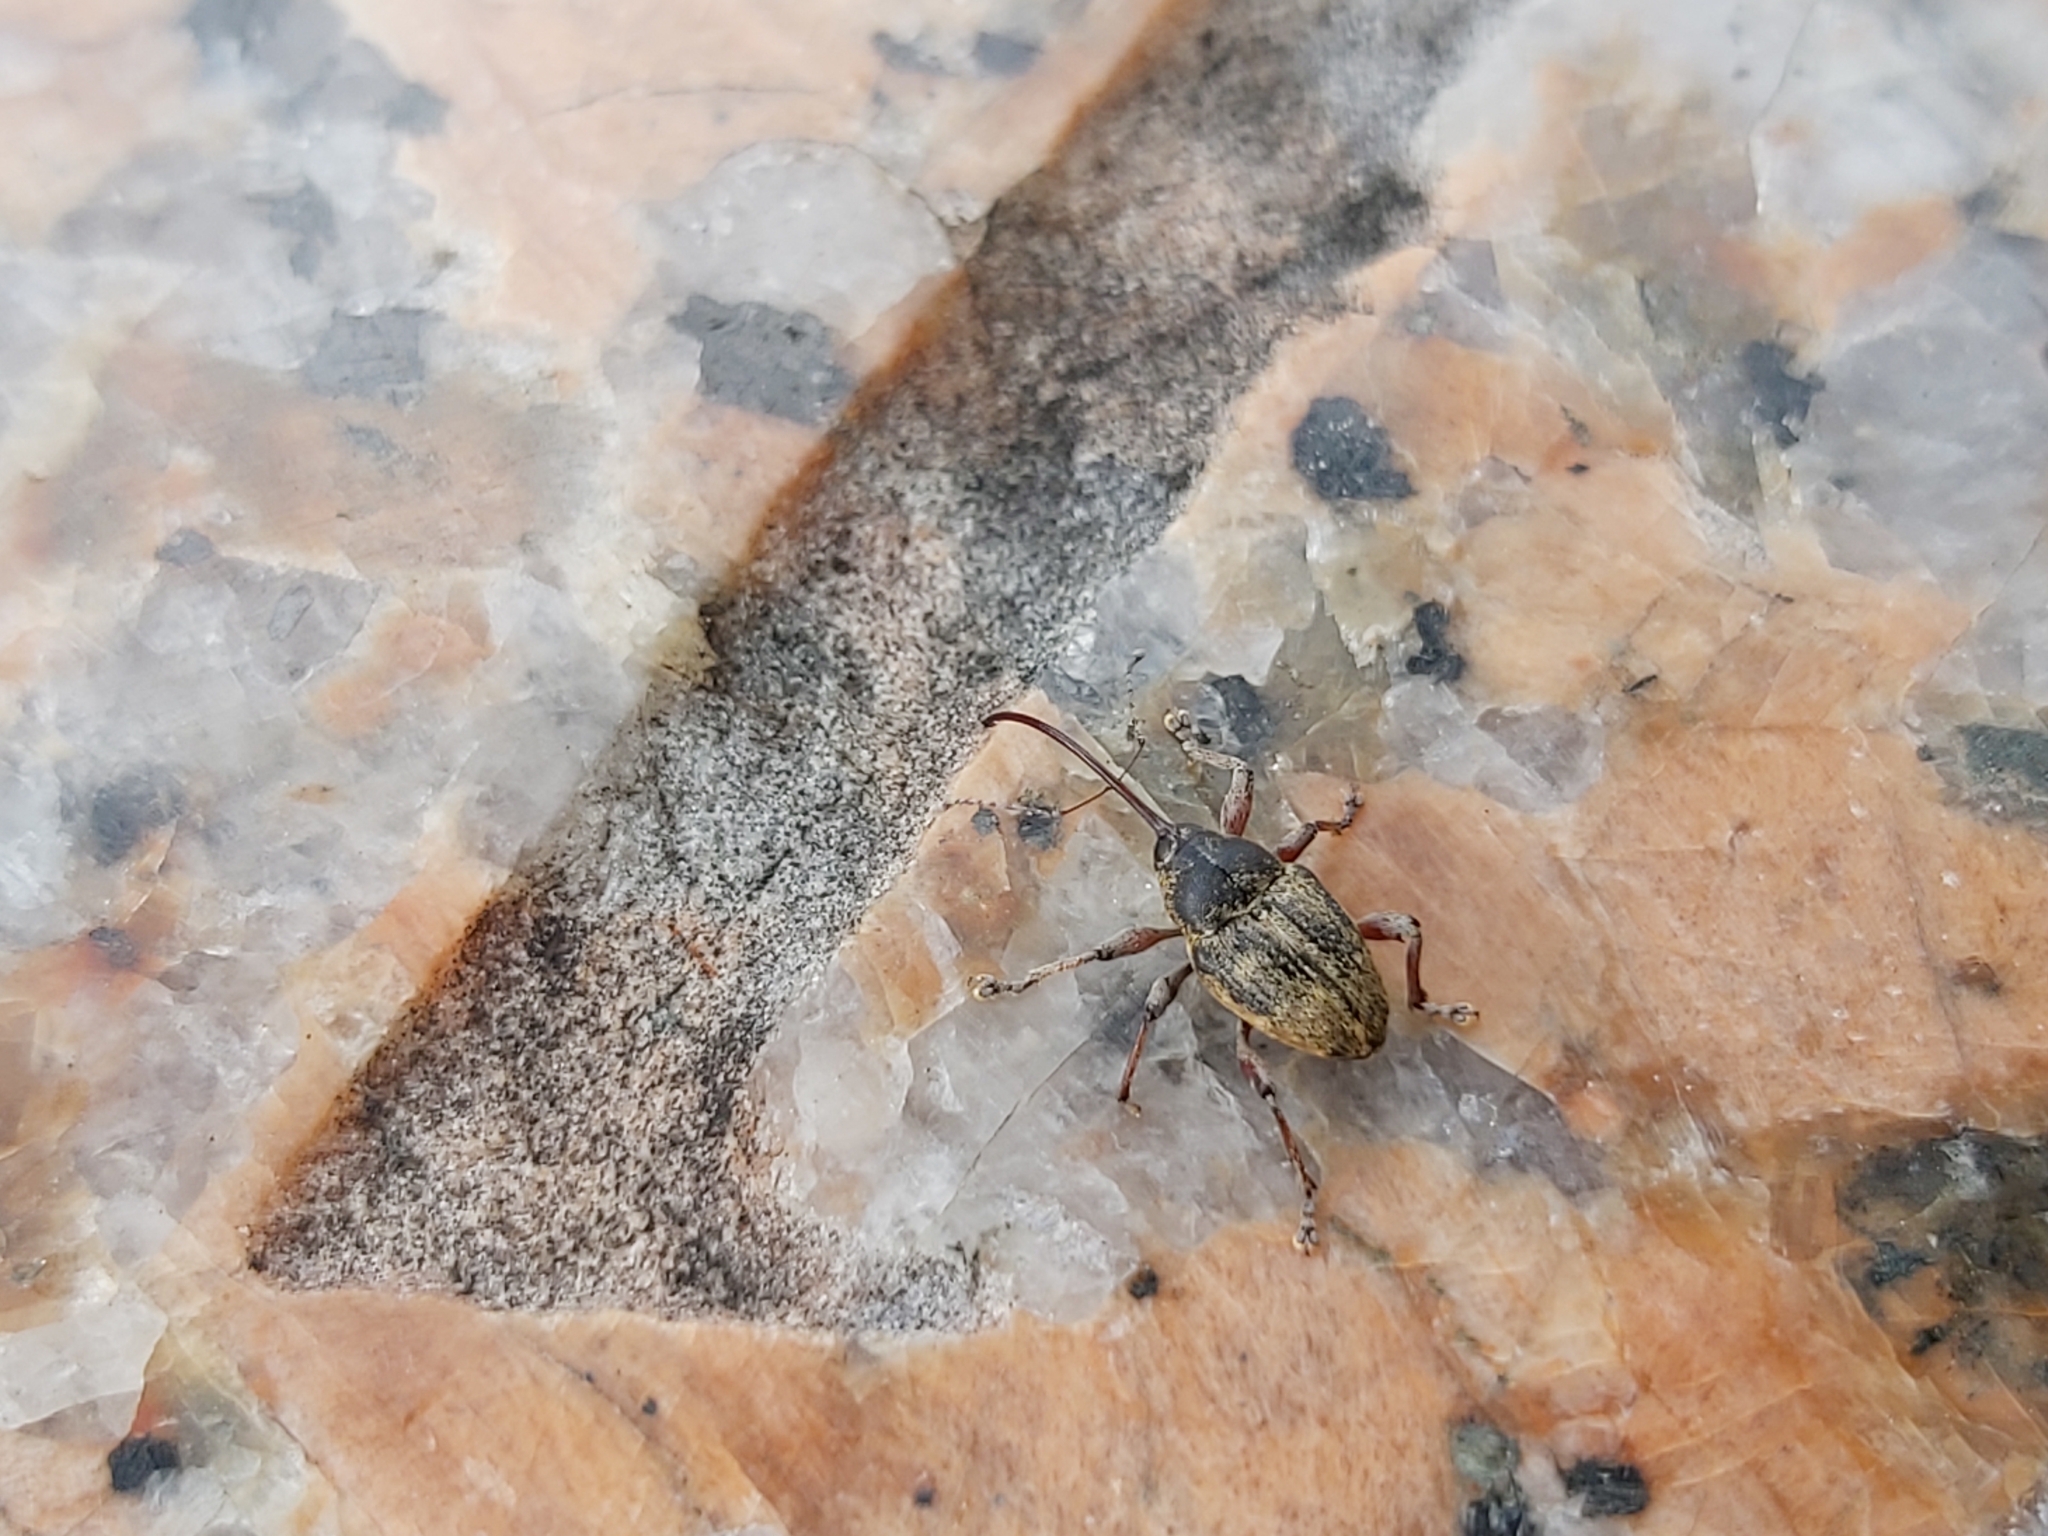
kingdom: Animalia
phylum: Arthropoda
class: Insecta
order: Coleoptera
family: Curculionidae
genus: Curculio
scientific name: Curculio glandium
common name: Acorn weevil
